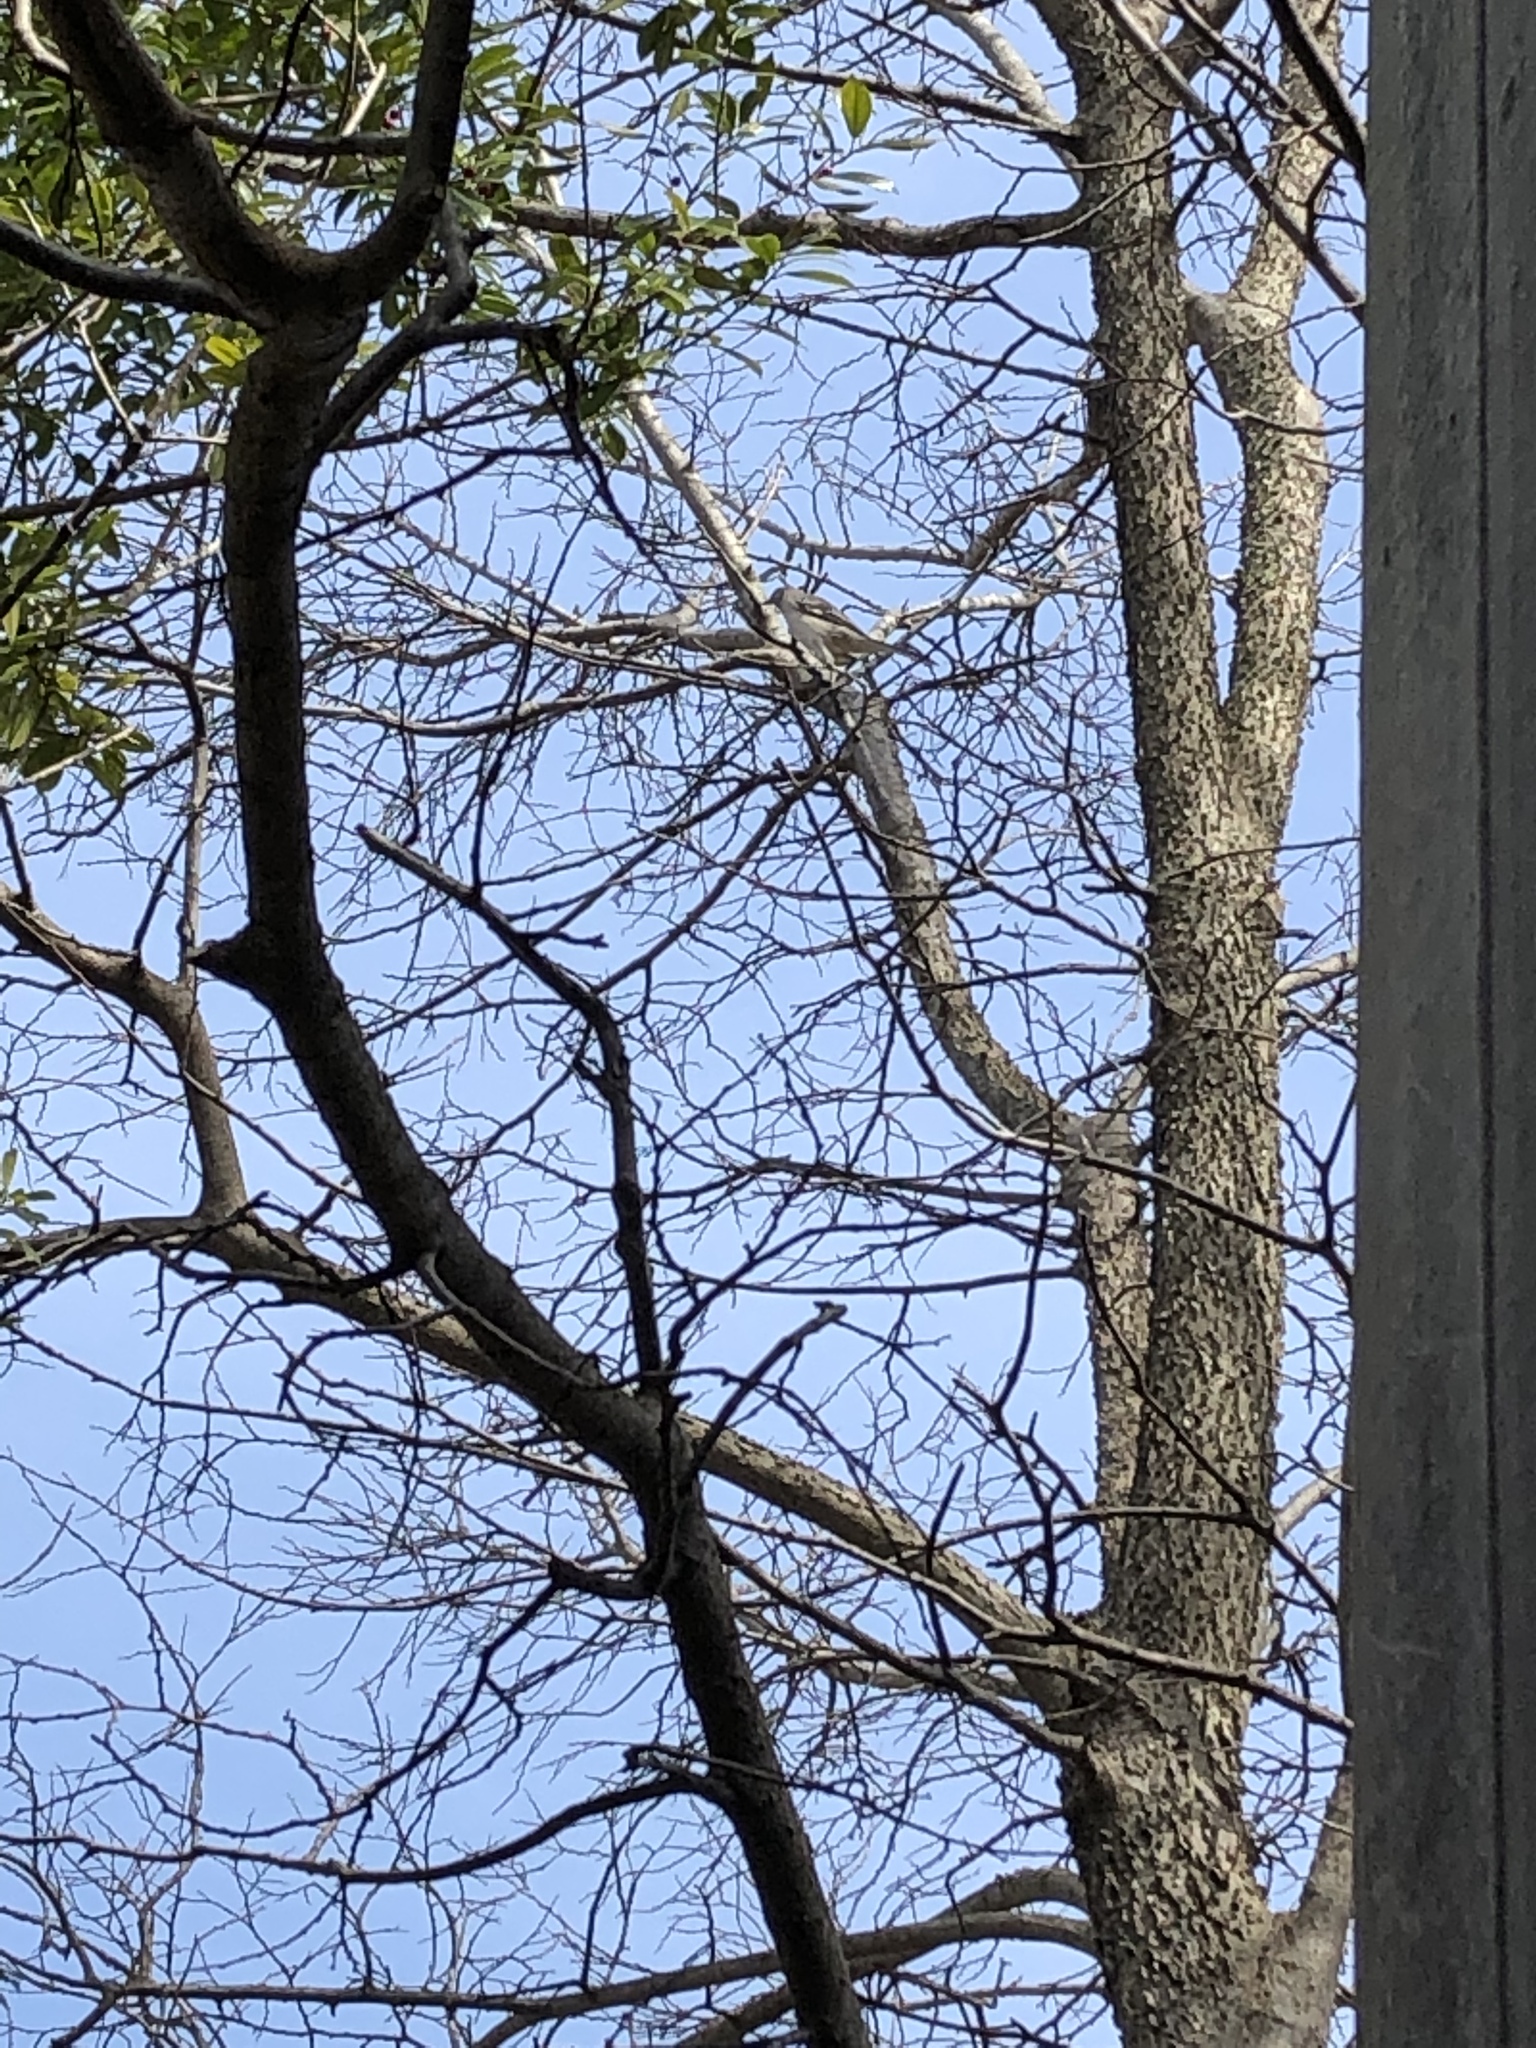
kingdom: Animalia
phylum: Chordata
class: Aves
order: Passeriformes
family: Mimidae
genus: Mimus
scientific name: Mimus polyglottos
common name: Northern mockingbird
